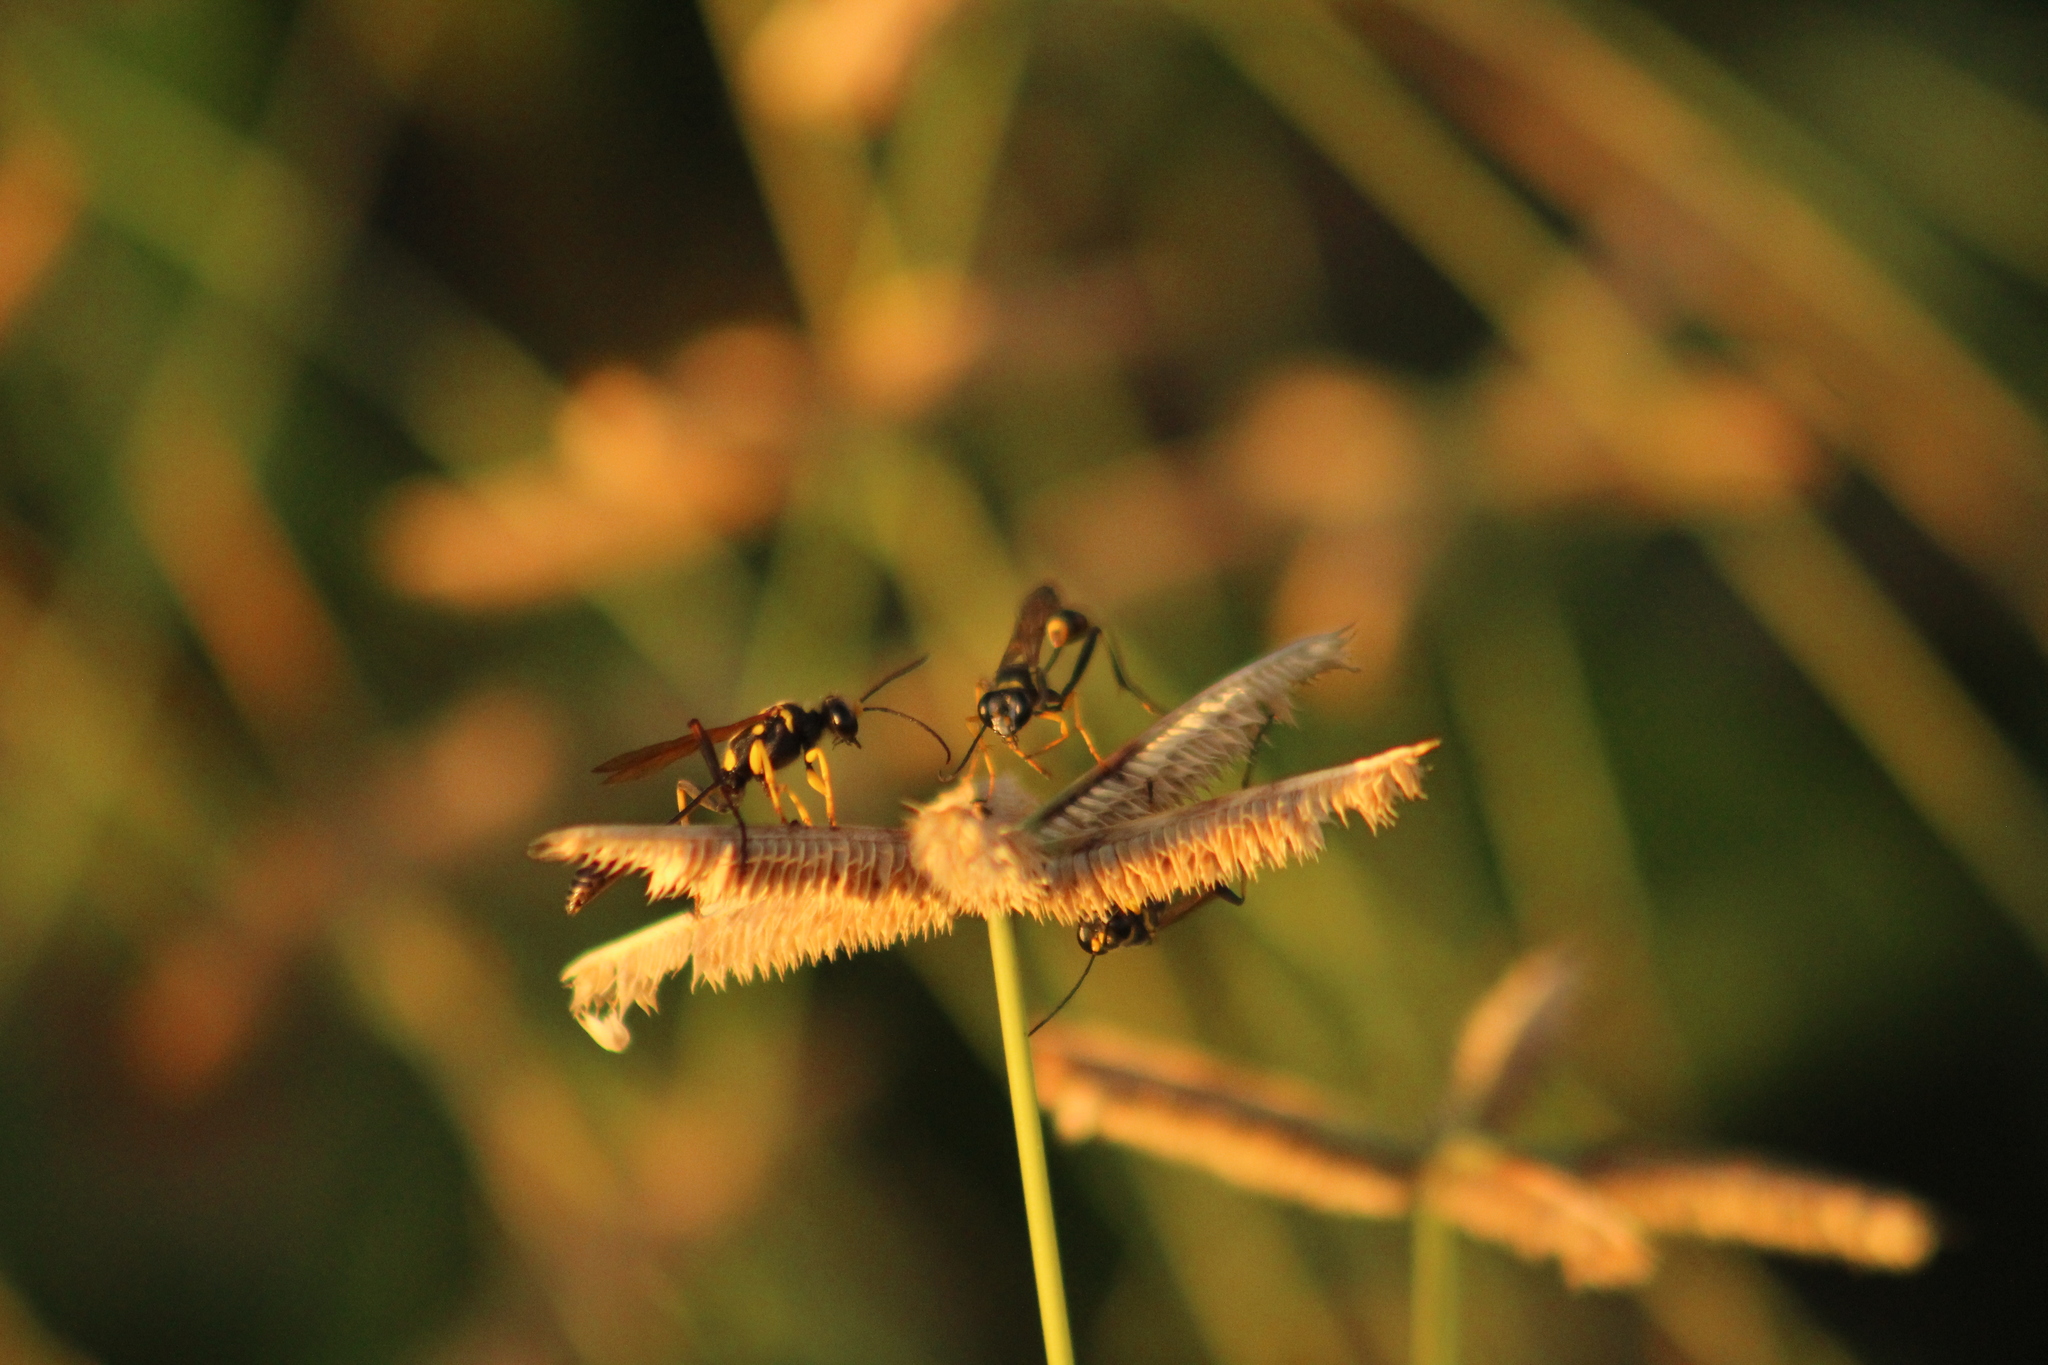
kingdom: Animalia
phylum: Arthropoda
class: Insecta
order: Hymenoptera
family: Sphecidae
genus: Sceliphron
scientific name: Sceliphron assimile
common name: Clayman's mud dauber
